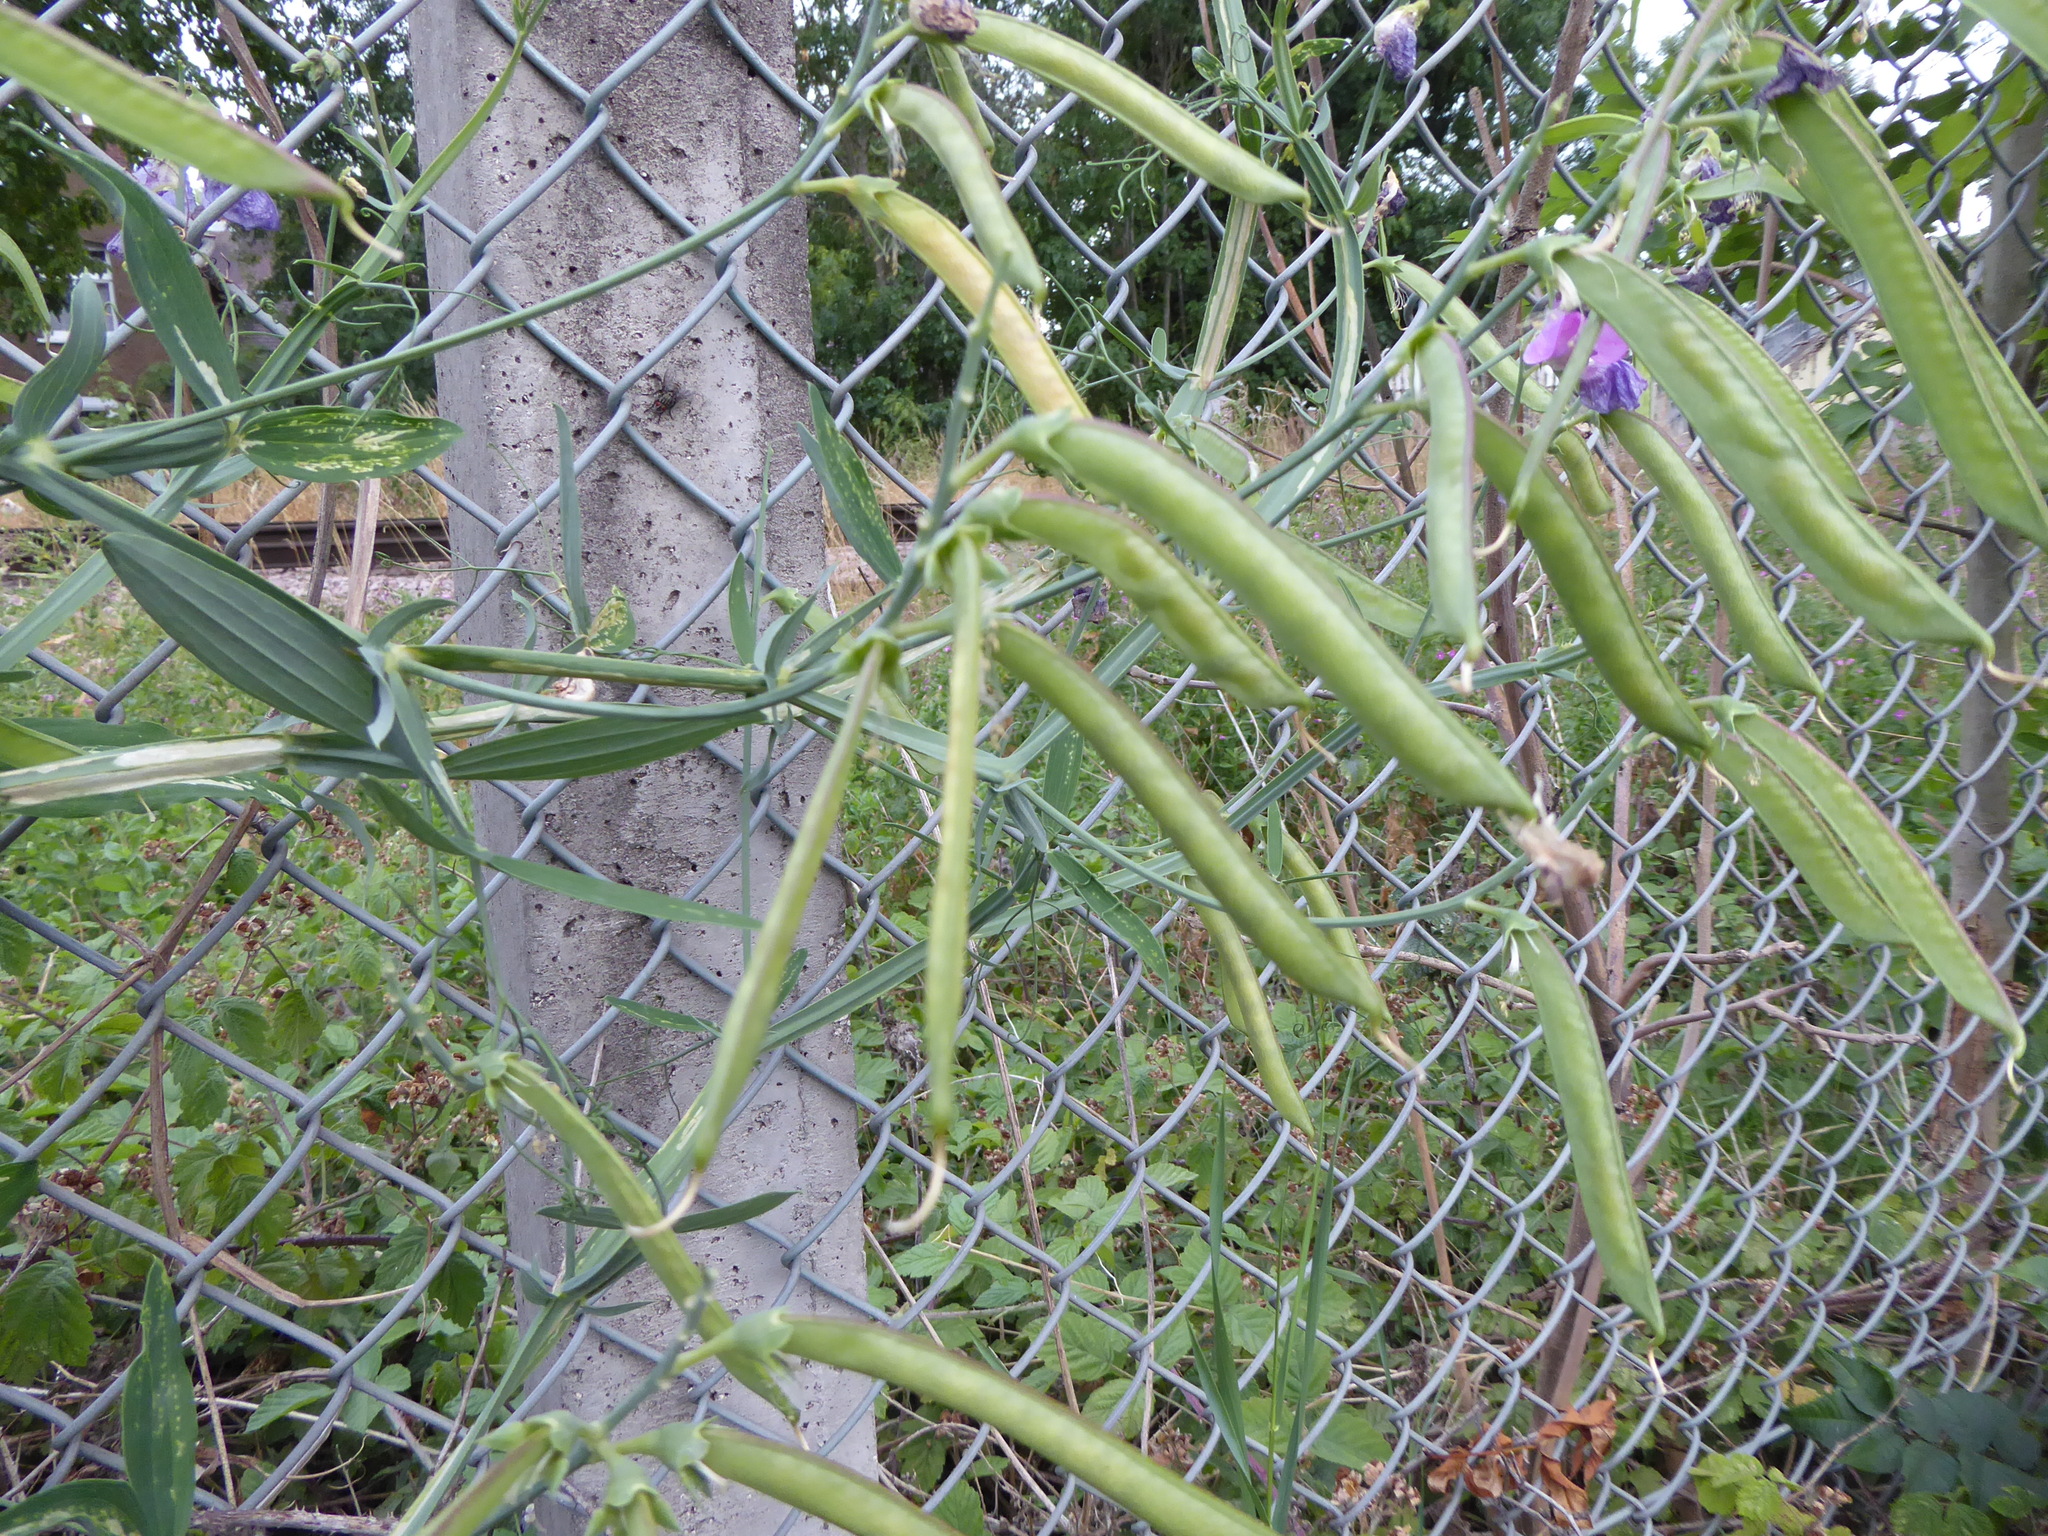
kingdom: Plantae
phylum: Tracheophyta
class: Magnoliopsida
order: Fabales
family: Fabaceae
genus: Lathyrus
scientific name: Lathyrus latifolius
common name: Perennial pea
